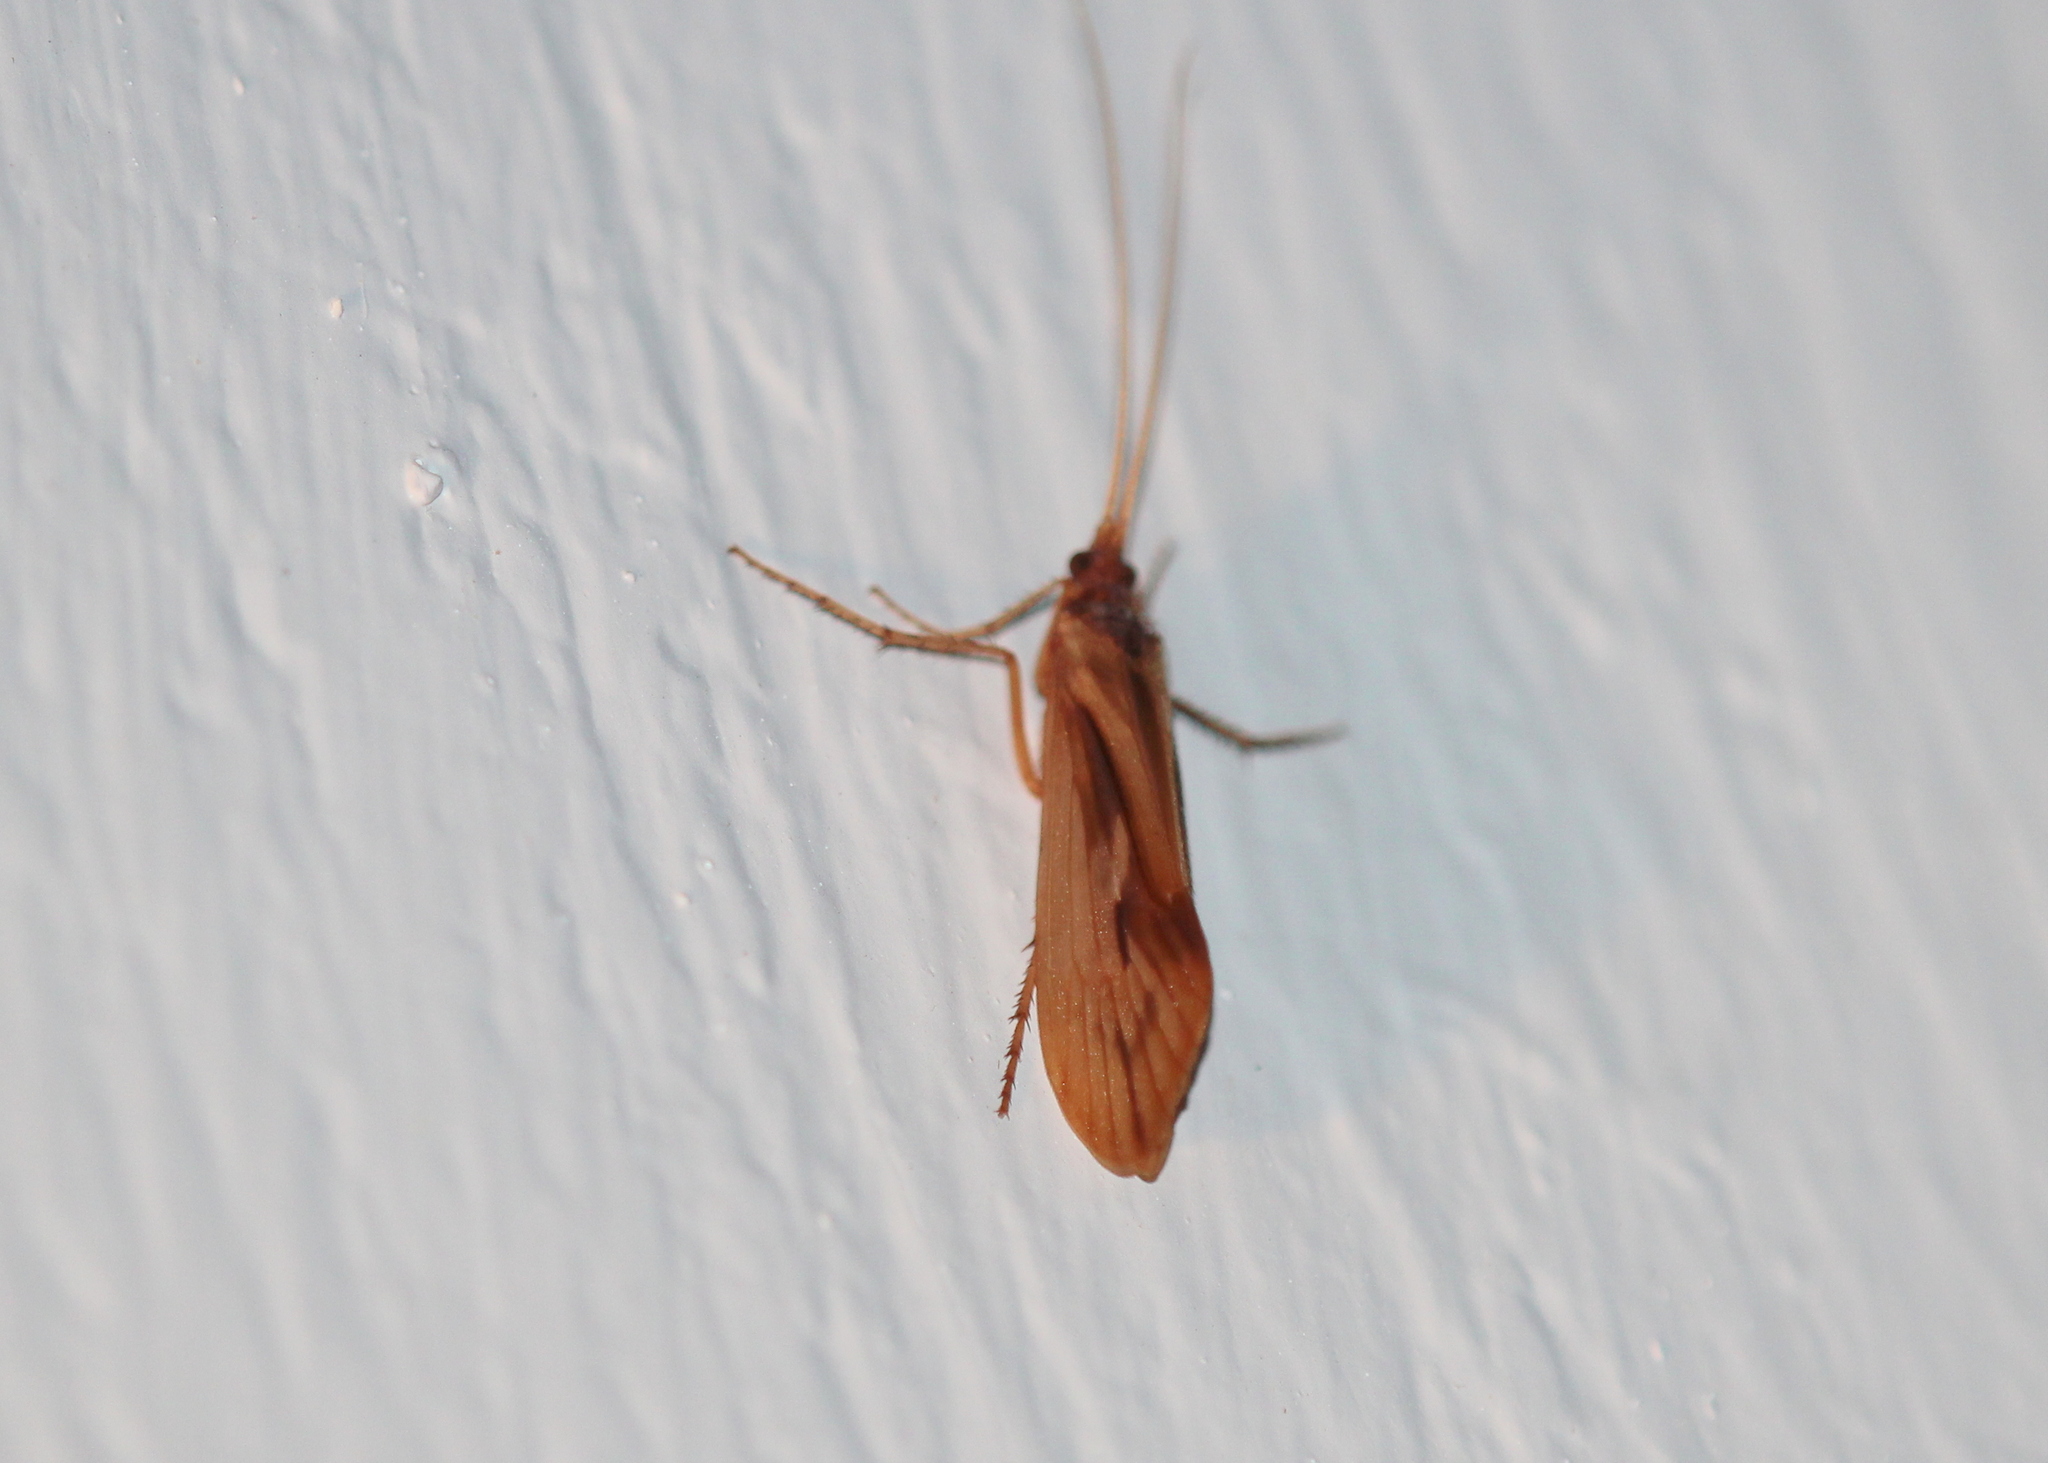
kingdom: Animalia
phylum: Arthropoda
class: Insecta
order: Trichoptera
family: Limnephilidae
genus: Platycentropus
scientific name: Platycentropus radiatus
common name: Chocolate-and-cream sedge
